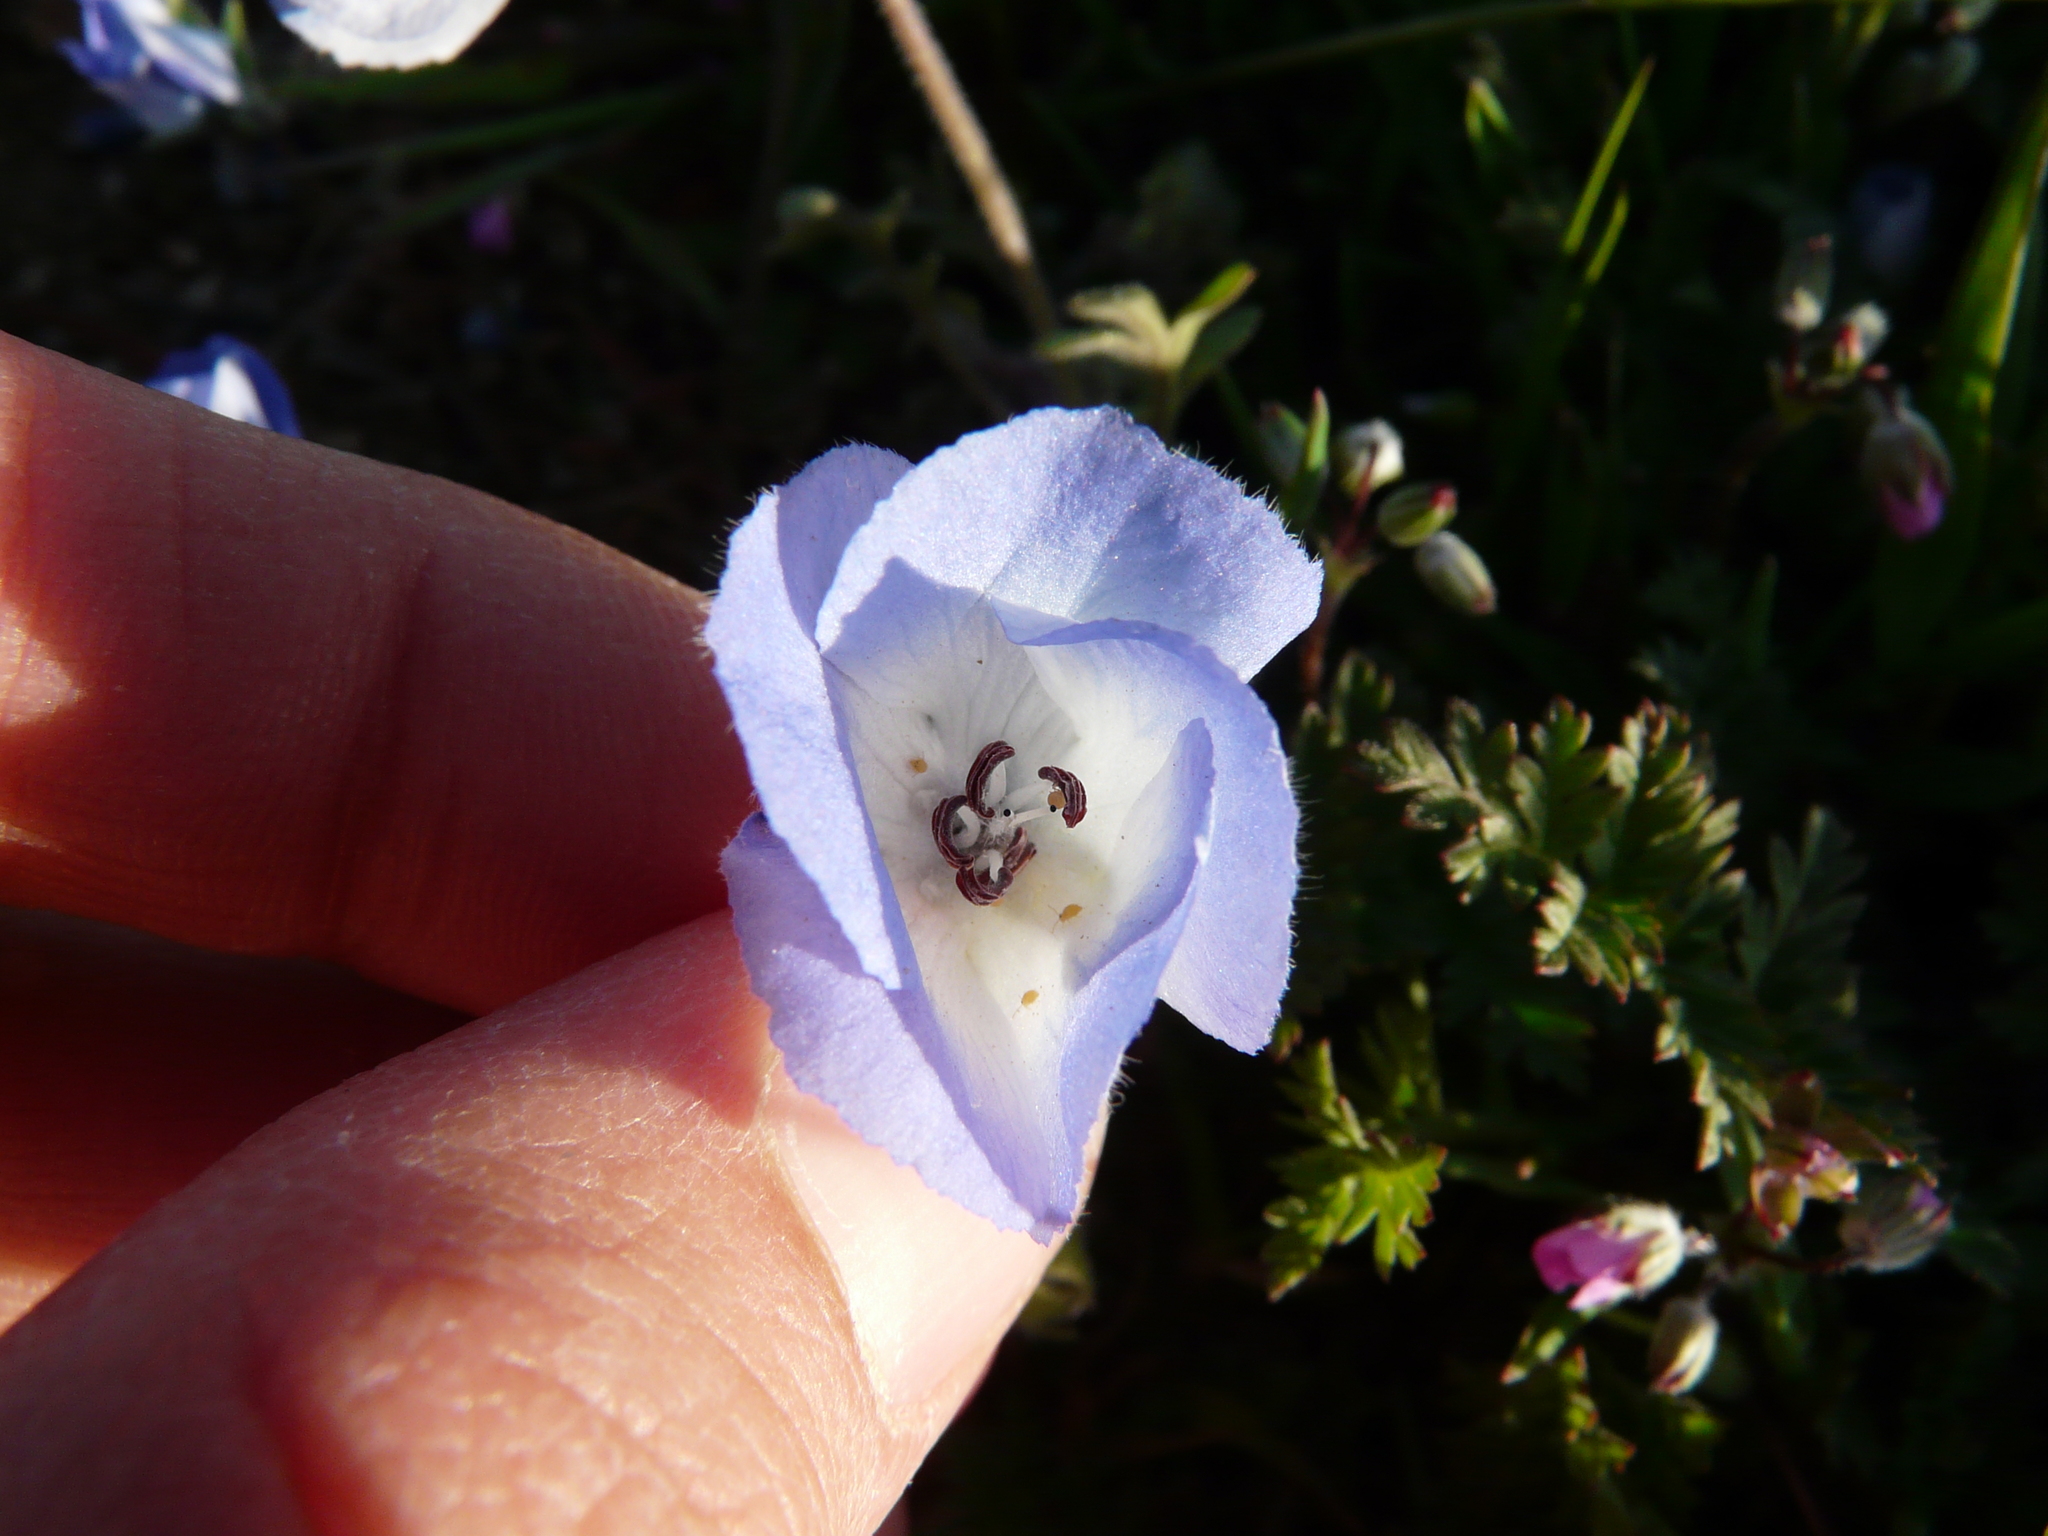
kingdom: Plantae
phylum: Tracheophyta
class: Magnoliopsida
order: Boraginales
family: Hydrophyllaceae
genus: Nemophila
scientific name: Nemophila menziesii
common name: Baby's-blue-eyes
